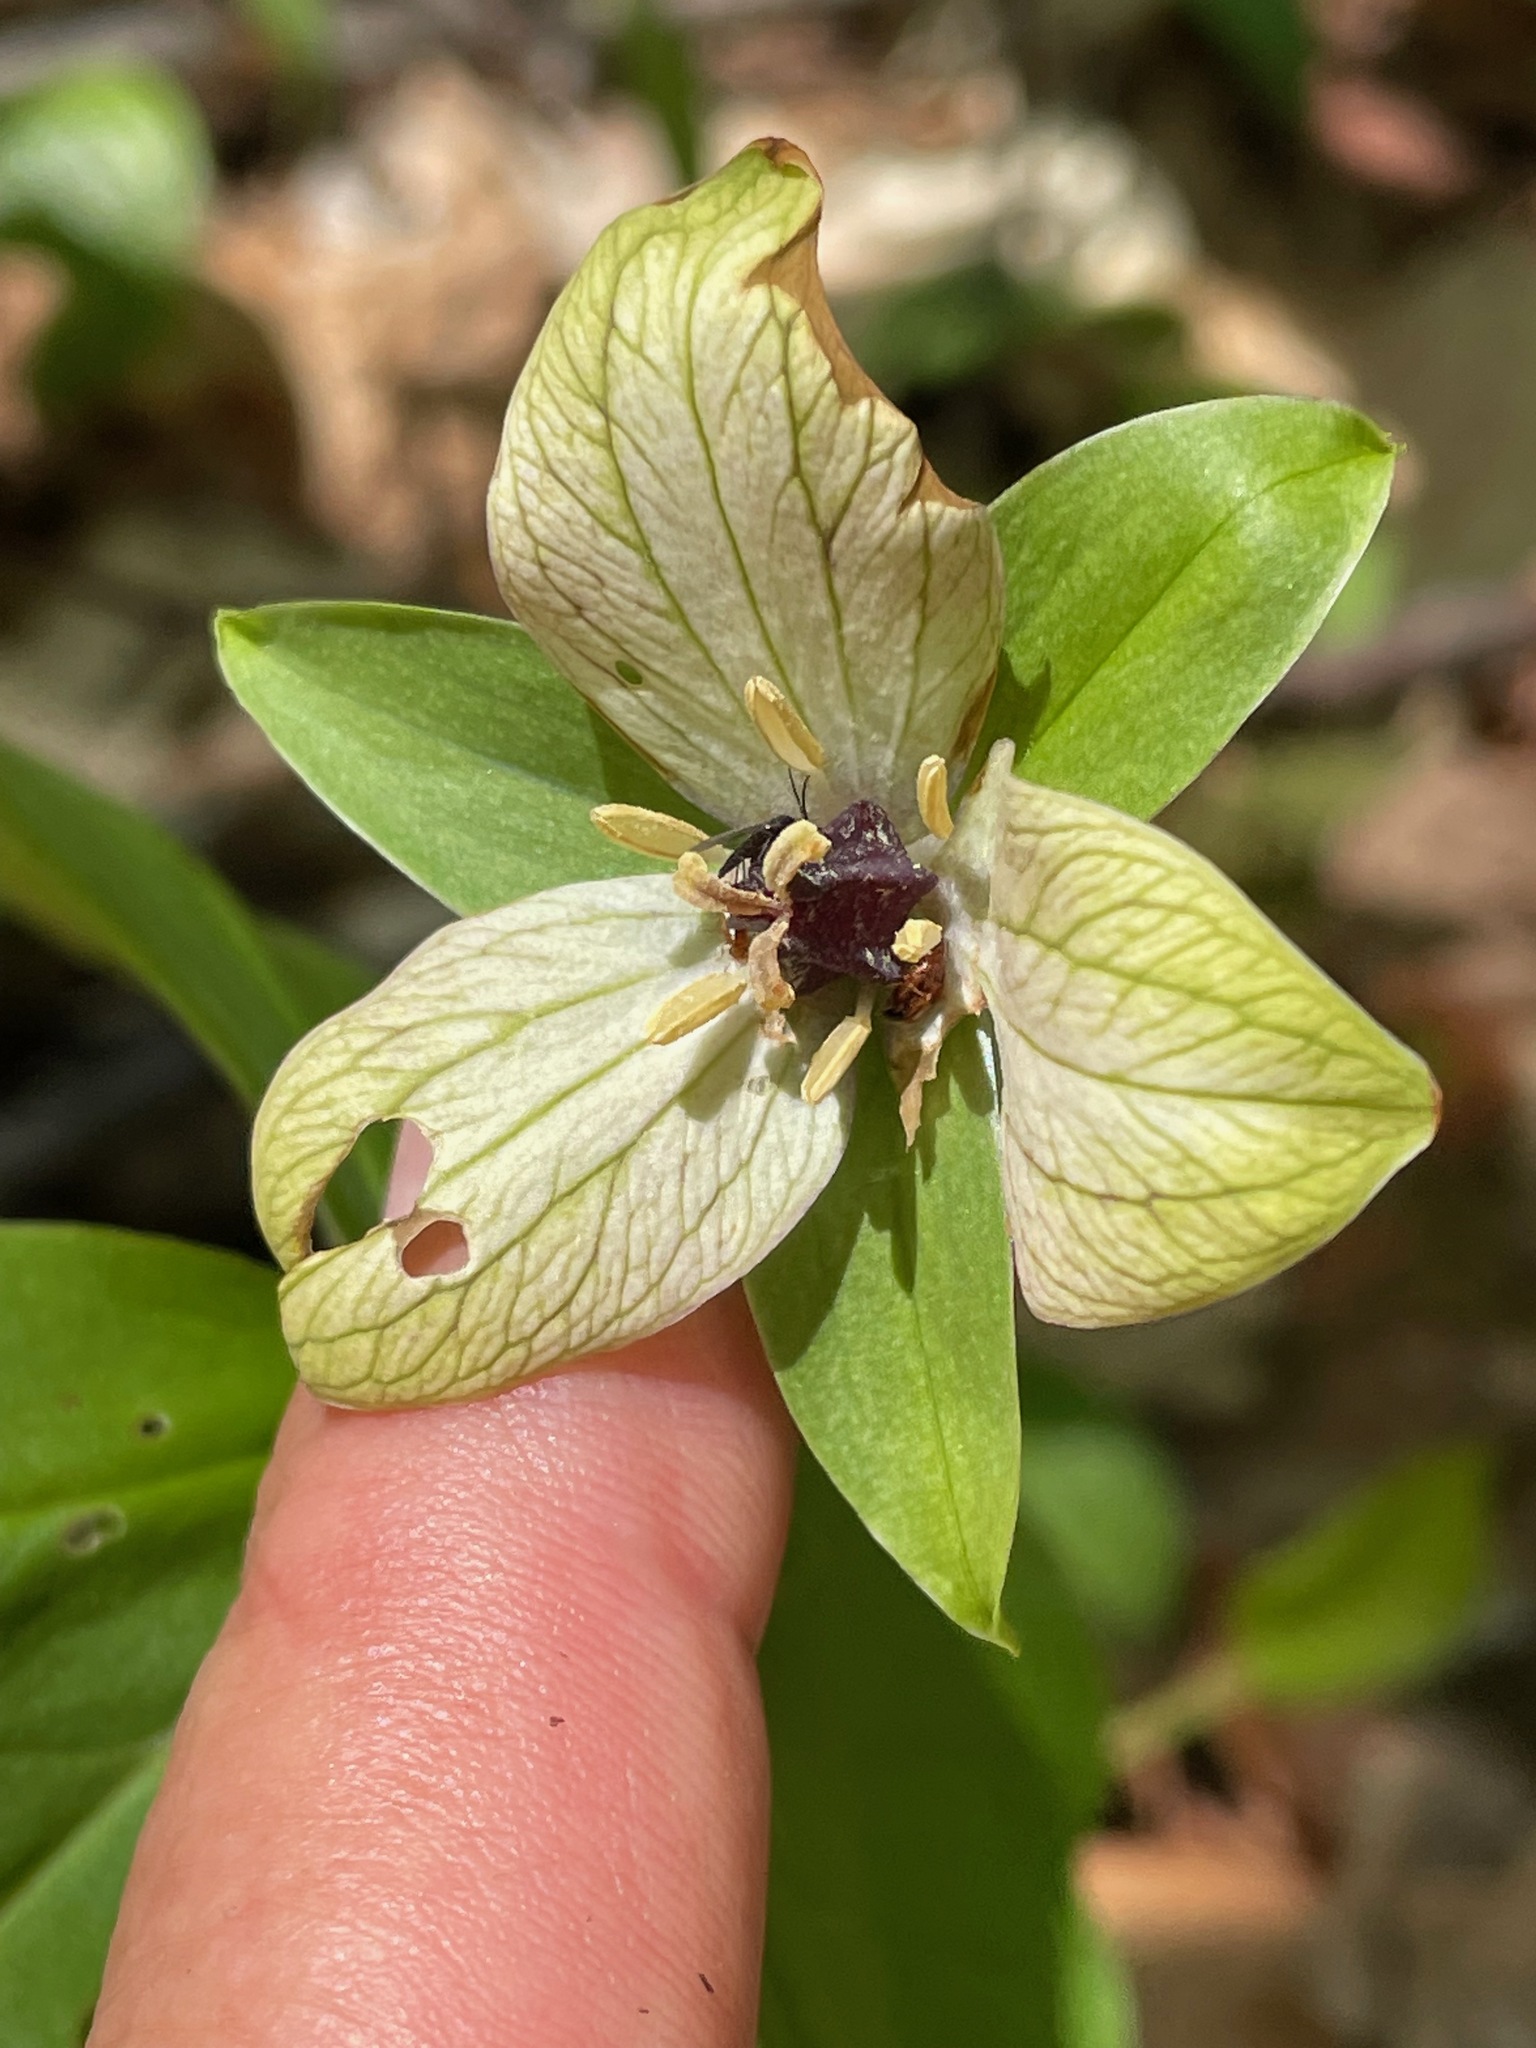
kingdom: Plantae
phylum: Tracheophyta
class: Liliopsida
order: Liliales
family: Melanthiaceae
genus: Trillium
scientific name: Trillium erectum
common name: Purple trillium
